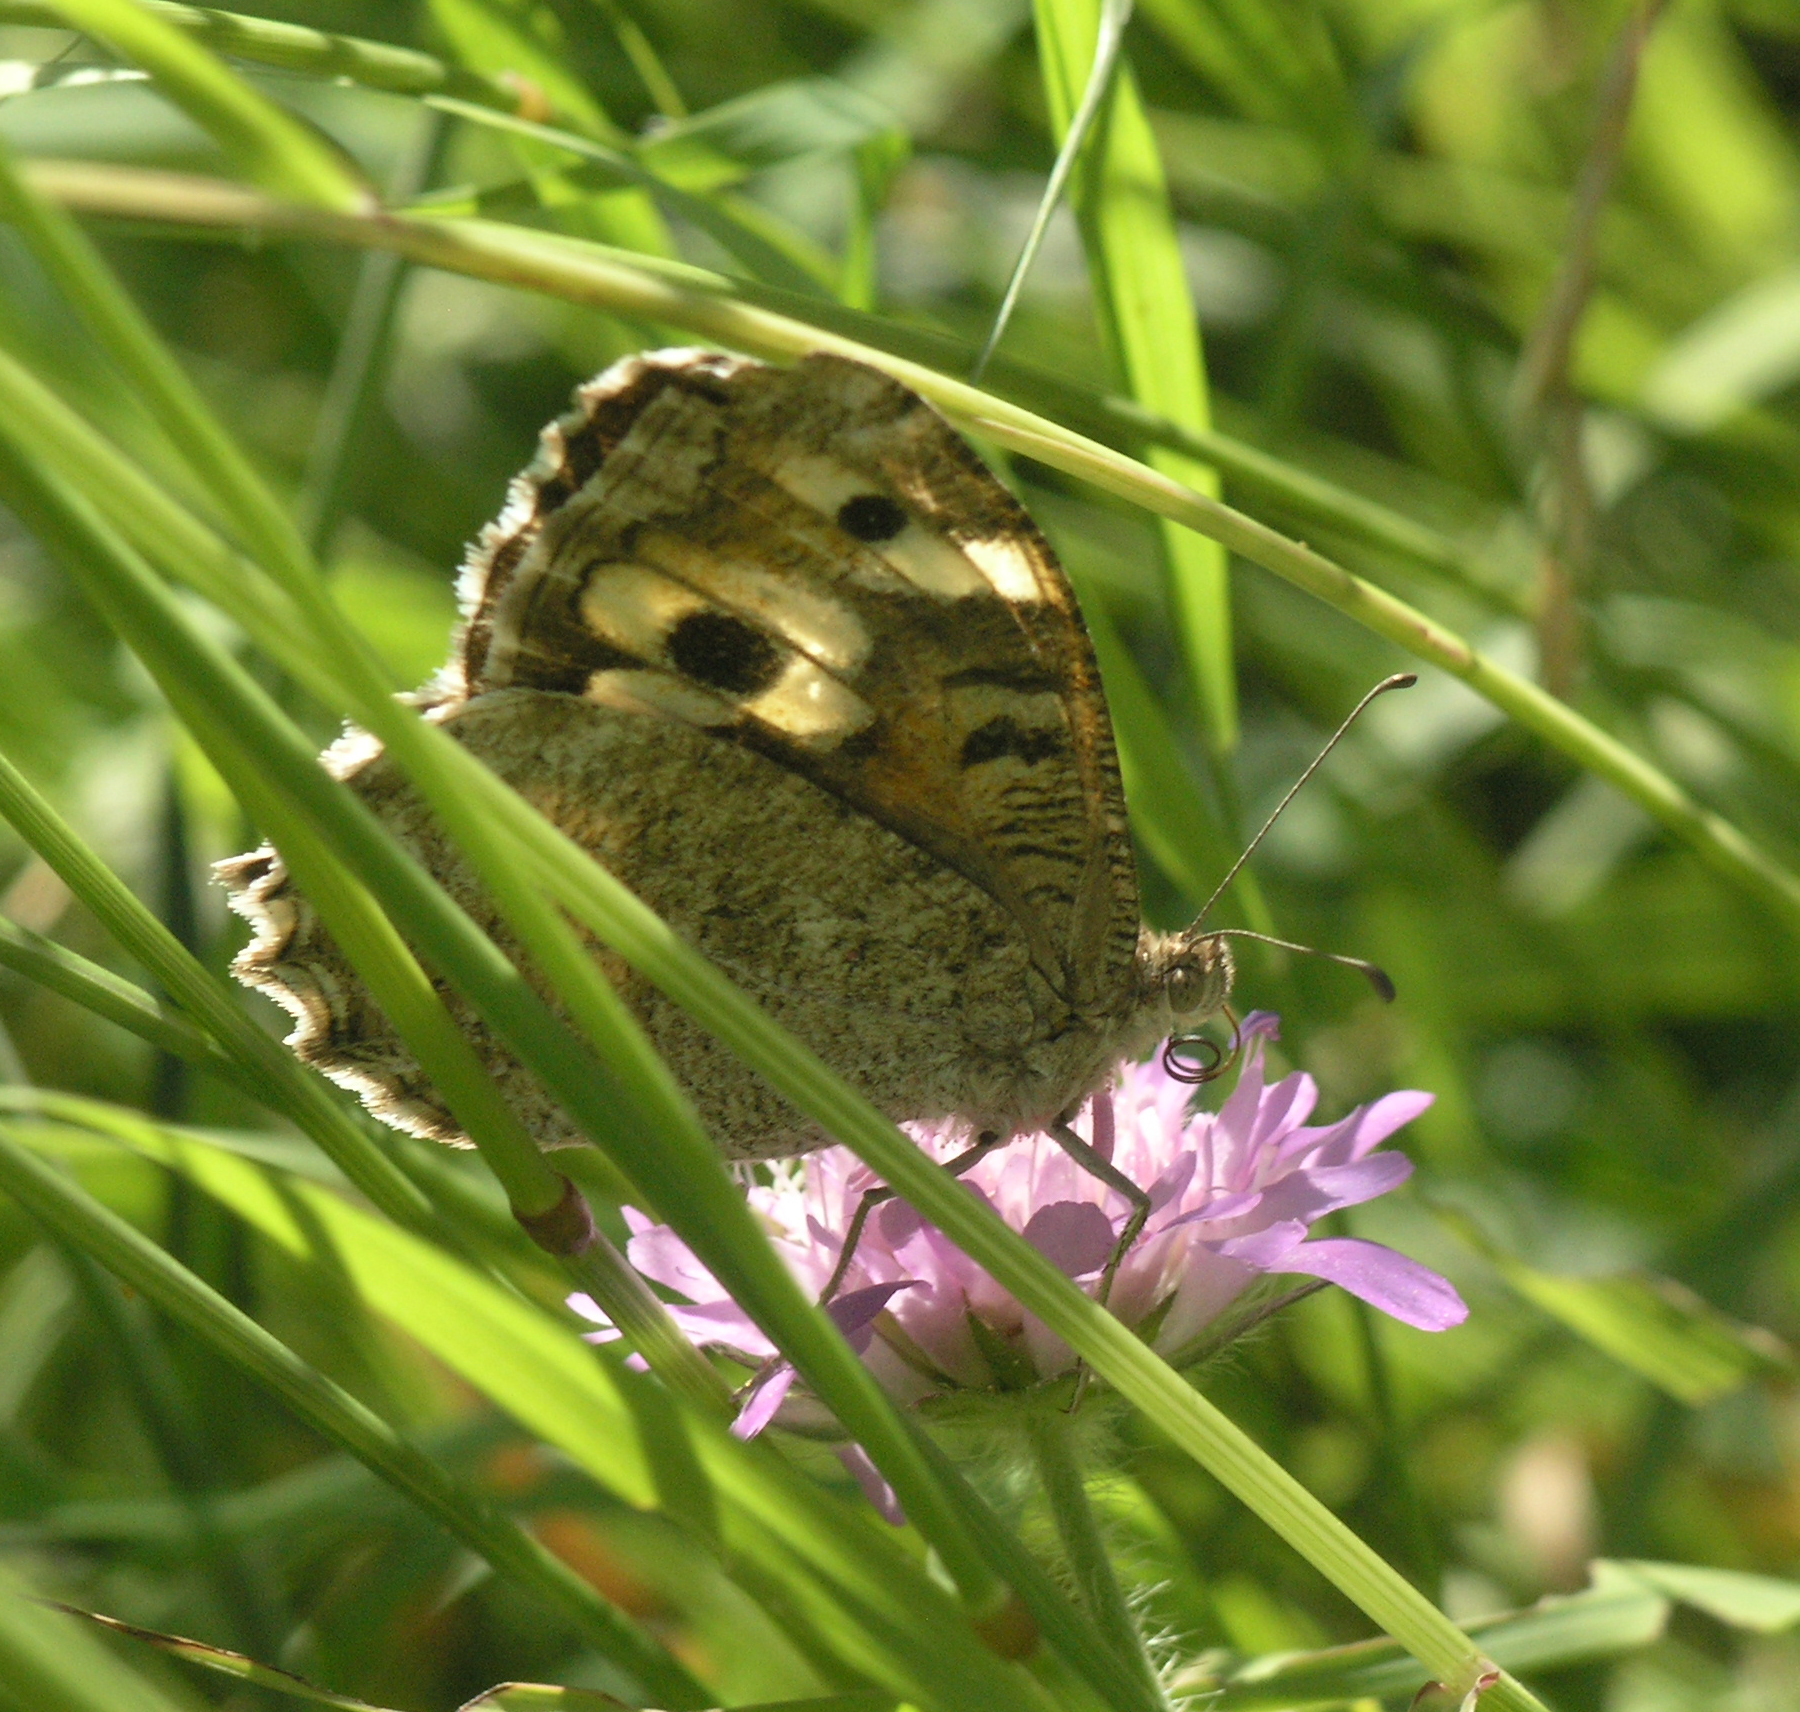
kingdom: Animalia
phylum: Arthropoda
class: Insecta
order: Lepidoptera
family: Nymphalidae
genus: Satyrus
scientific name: Satyrus Chazara enervata
